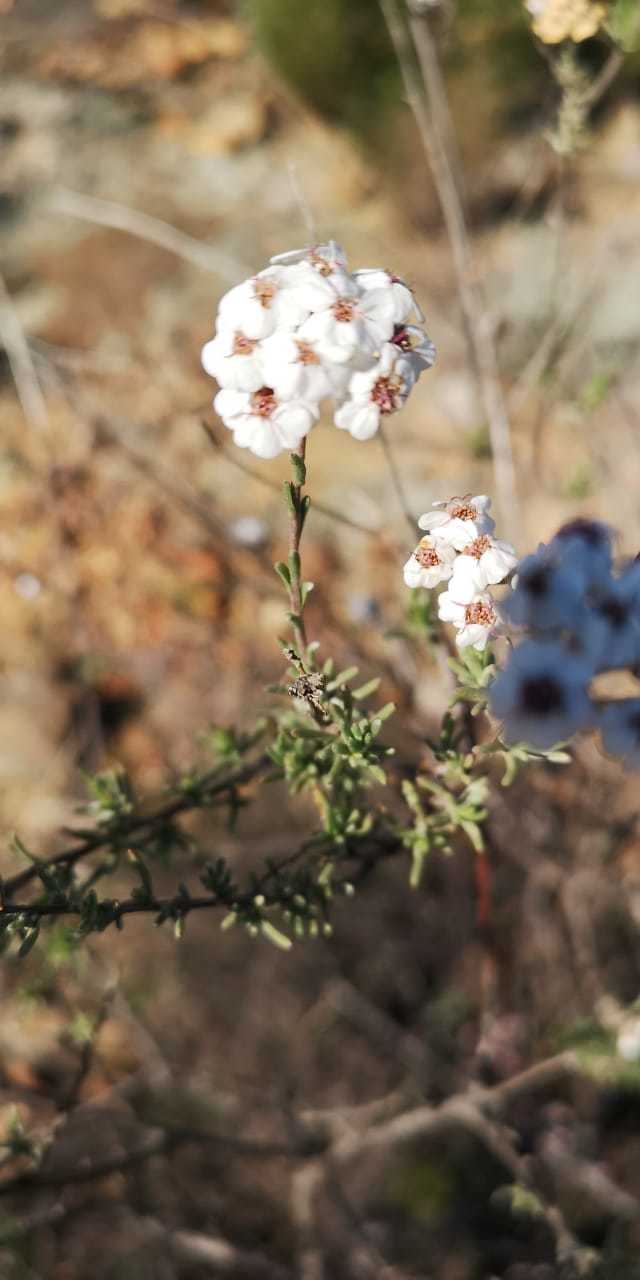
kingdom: Plantae
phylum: Tracheophyta
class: Magnoliopsida
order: Asterales
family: Asteraceae
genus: Eriocephalus
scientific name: Eriocephalus africanus
